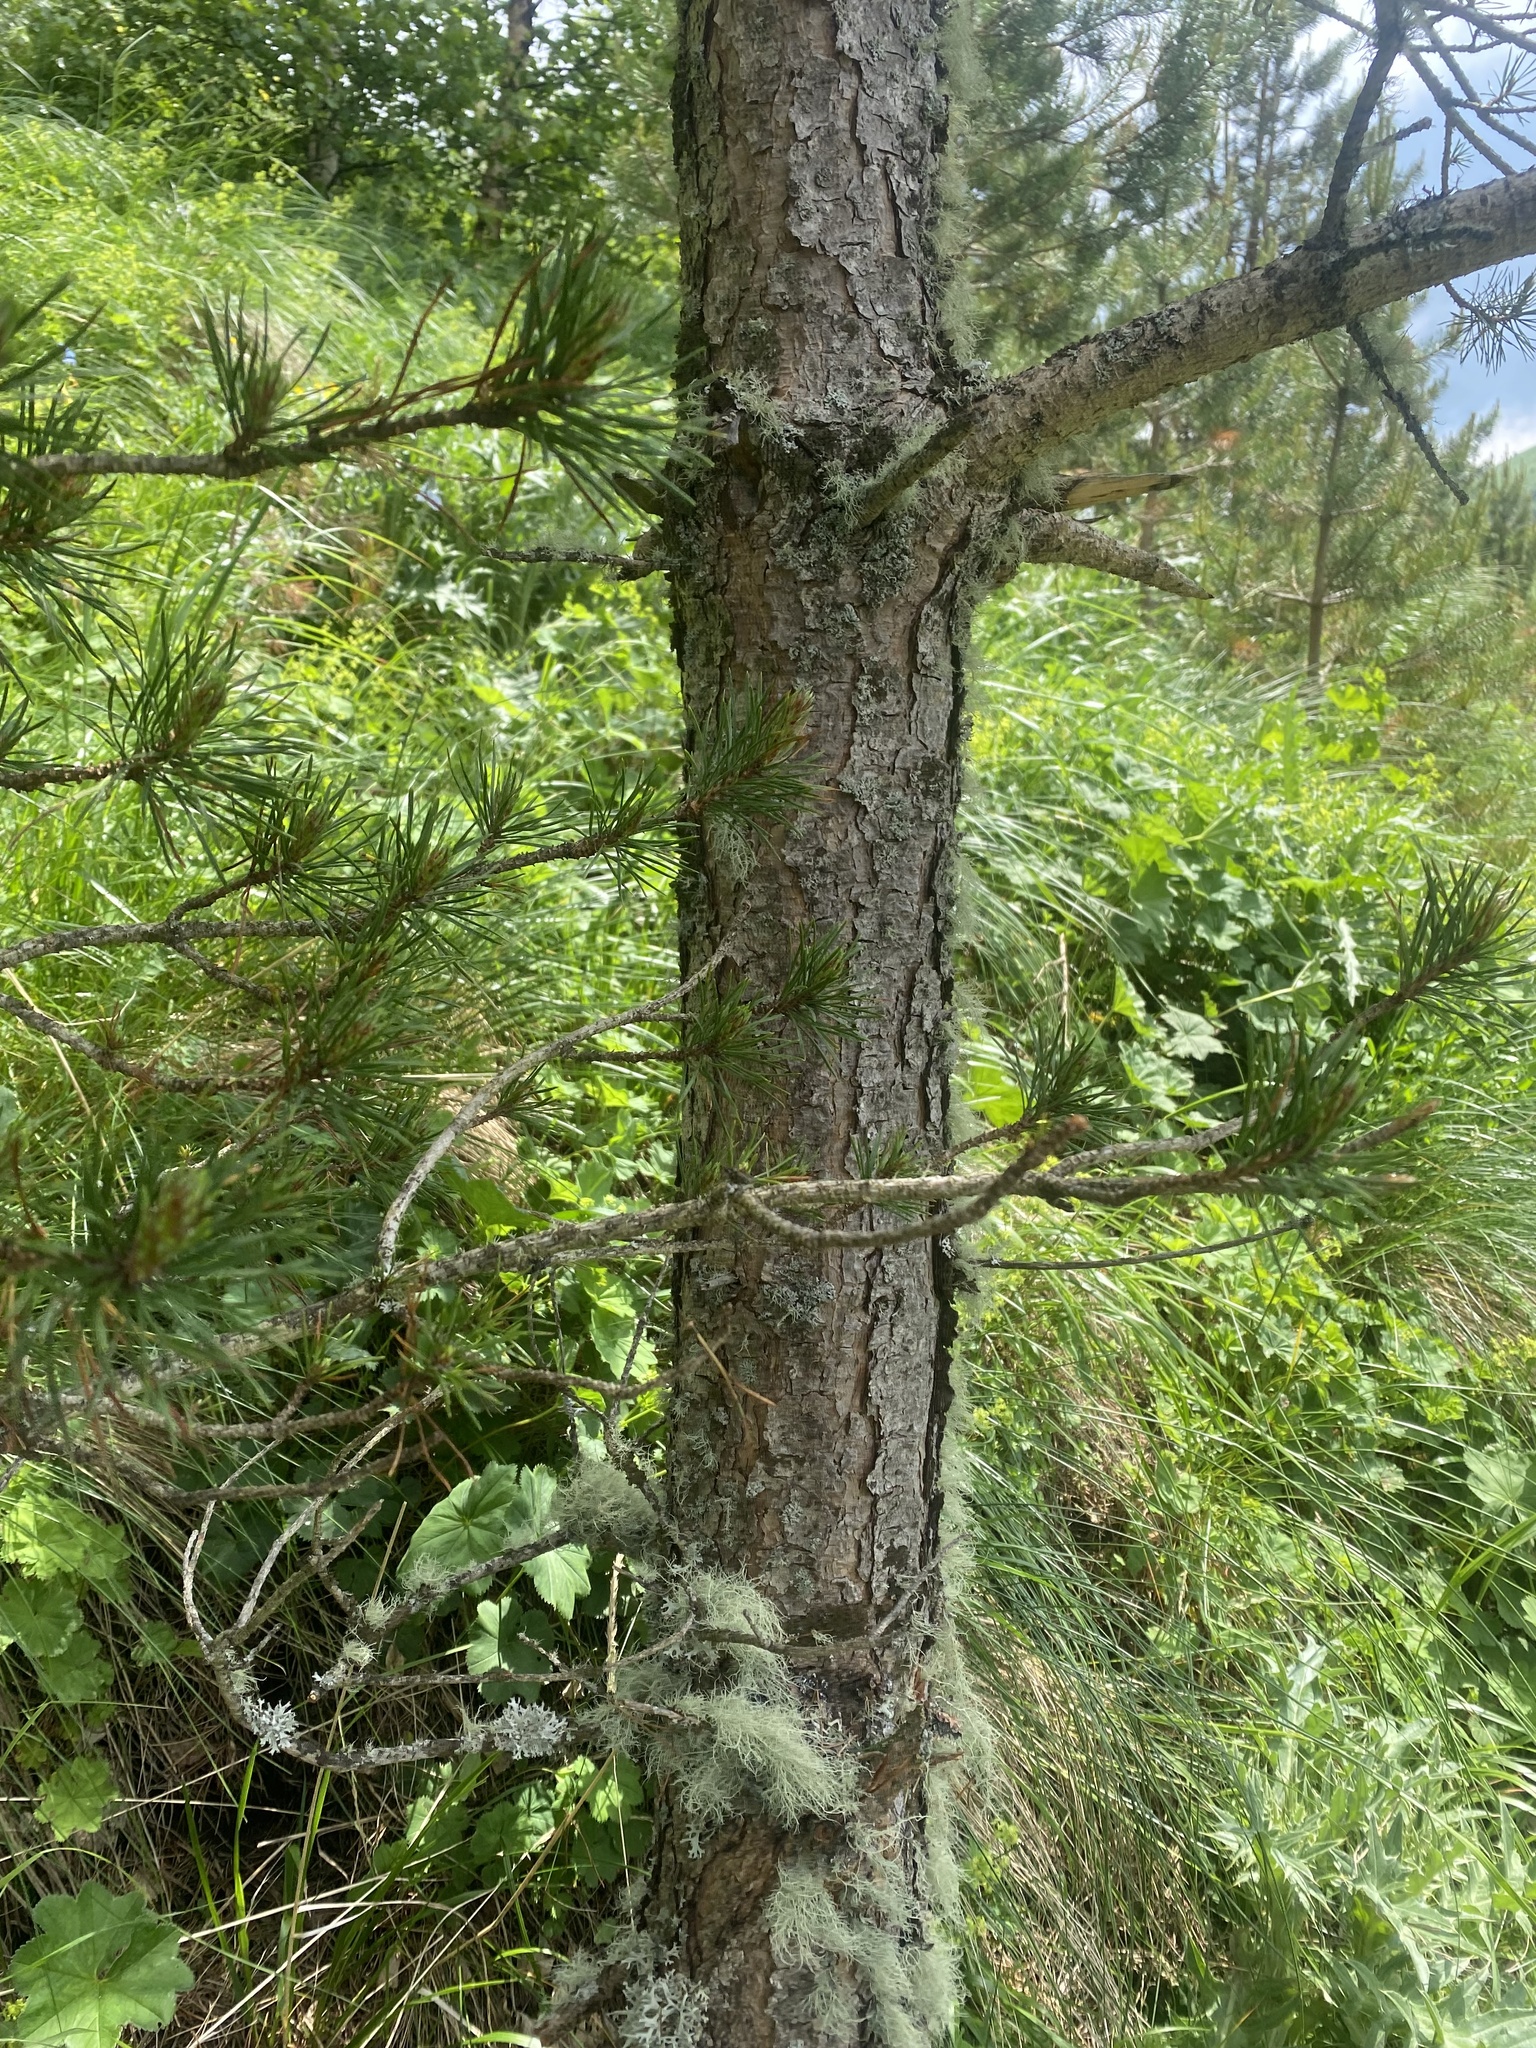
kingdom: Plantae
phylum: Tracheophyta
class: Pinopsida
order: Pinales
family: Pinaceae
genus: Pinus
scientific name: Pinus sylvestris
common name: Scots pine
